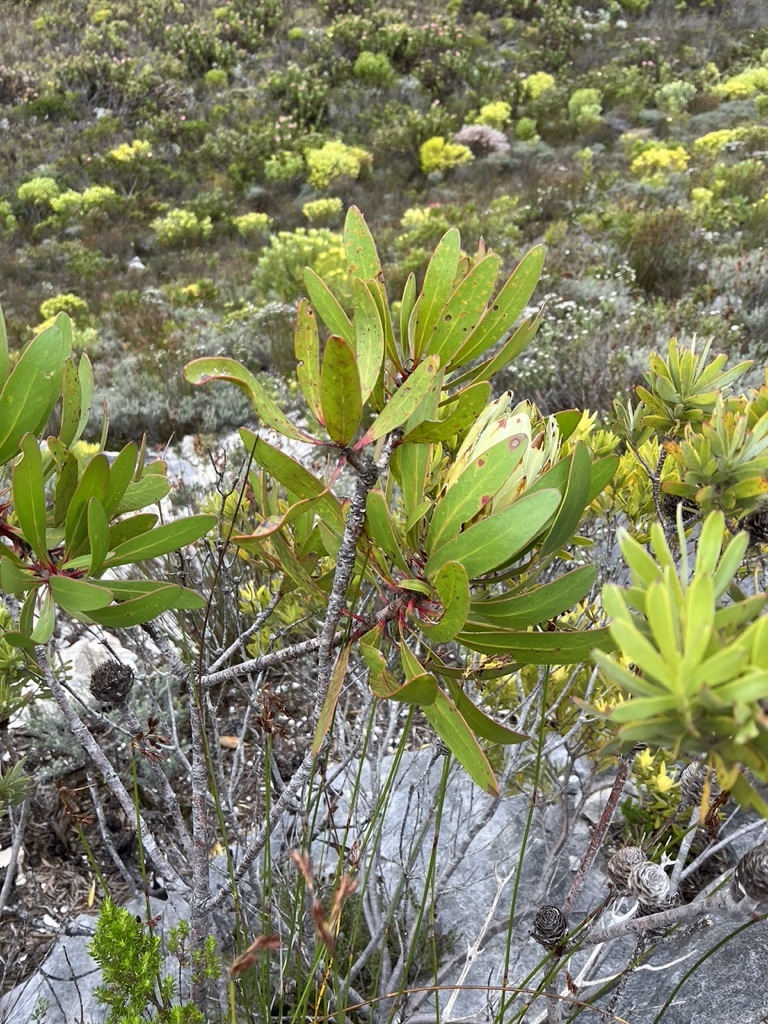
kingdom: Plantae
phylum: Tracheophyta
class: Magnoliopsida
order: Proteales
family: Proteaceae
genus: Protea
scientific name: Protea obtusifolia
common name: Bredasdorp sugarbush
